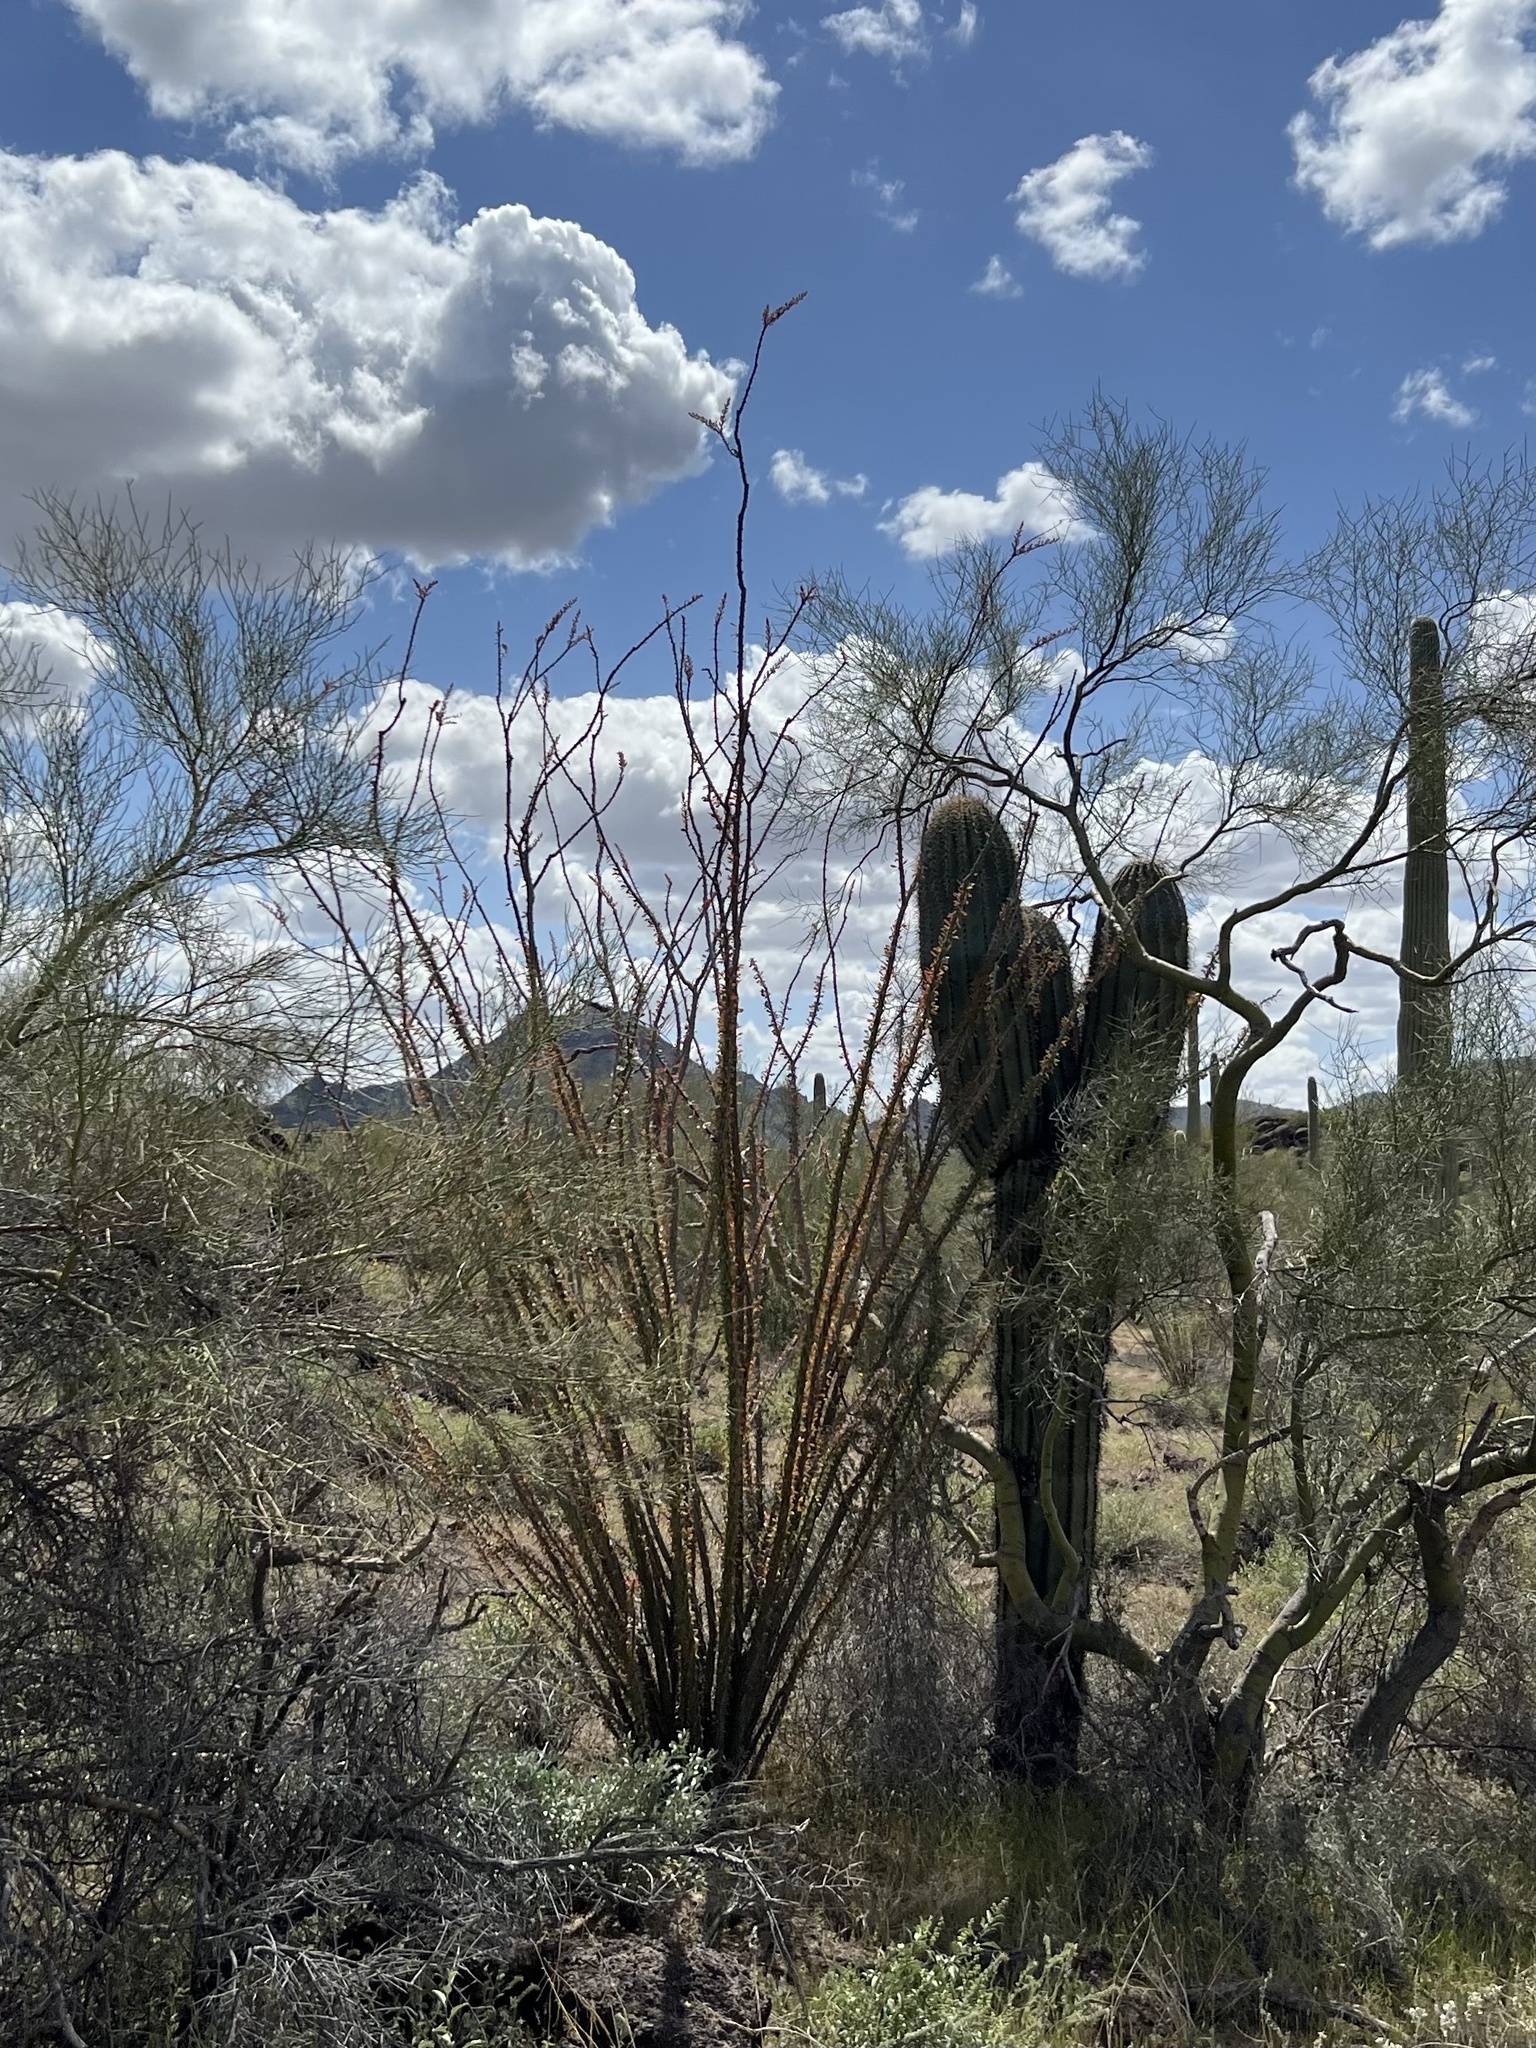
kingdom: Plantae
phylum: Tracheophyta
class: Magnoliopsida
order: Ericales
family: Fouquieriaceae
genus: Fouquieria
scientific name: Fouquieria splendens
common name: Vine-cactus
